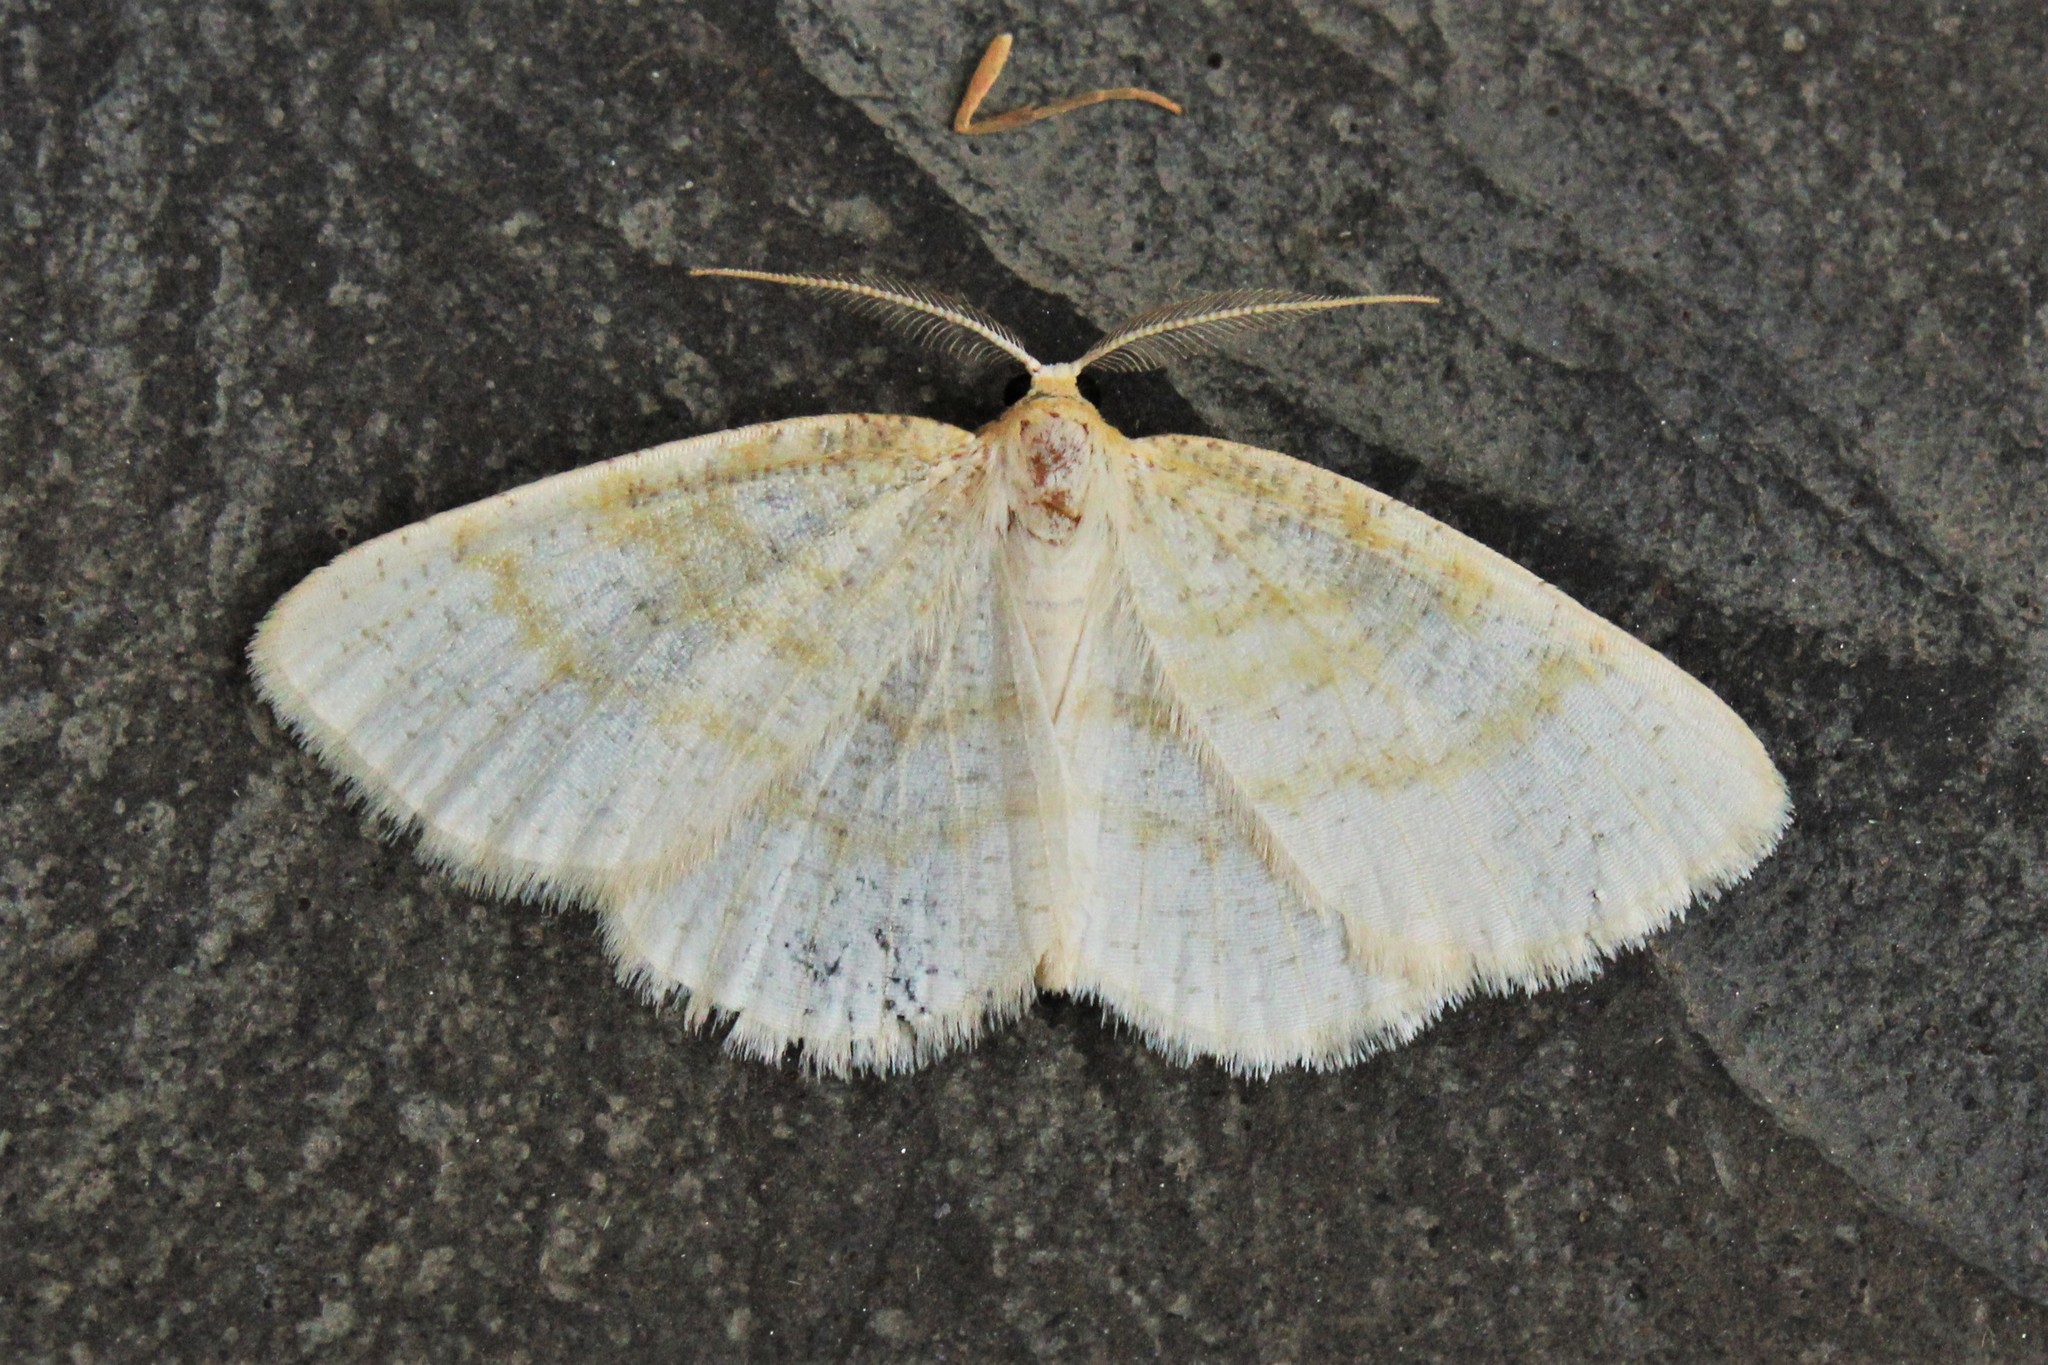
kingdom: Animalia
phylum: Arthropoda
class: Insecta
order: Lepidoptera
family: Geometridae
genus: Cabera
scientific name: Cabera erythemaria
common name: Yellow-dusted cream moth
